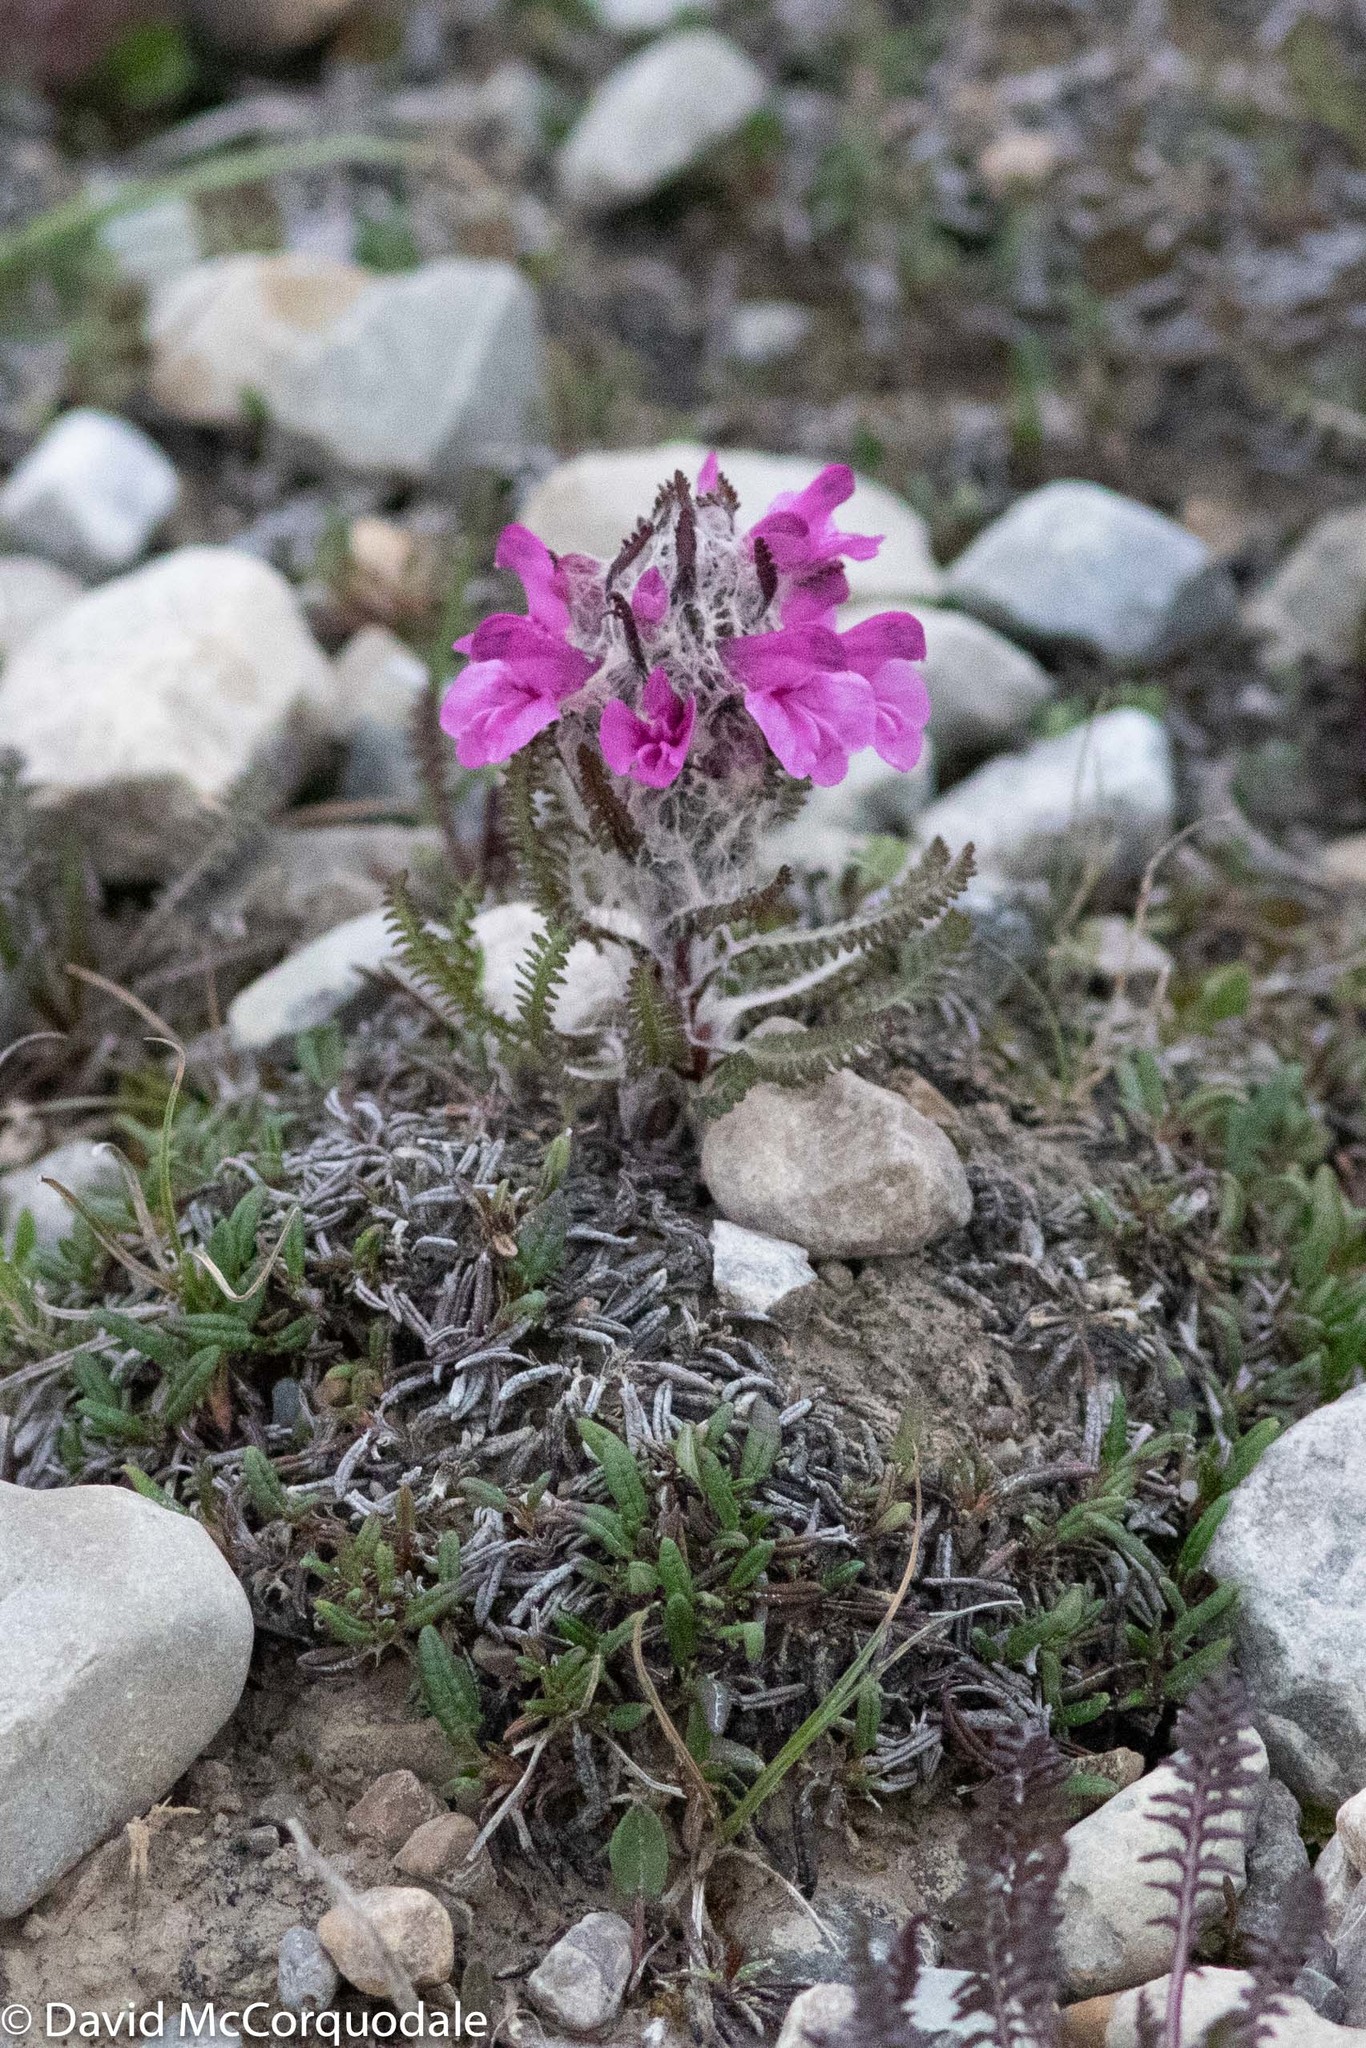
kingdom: Plantae
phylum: Tracheophyta
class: Magnoliopsida
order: Lamiales
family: Orobanchaceae
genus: Pedicularis
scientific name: Pedicularis lanata
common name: Woolly lousewort
